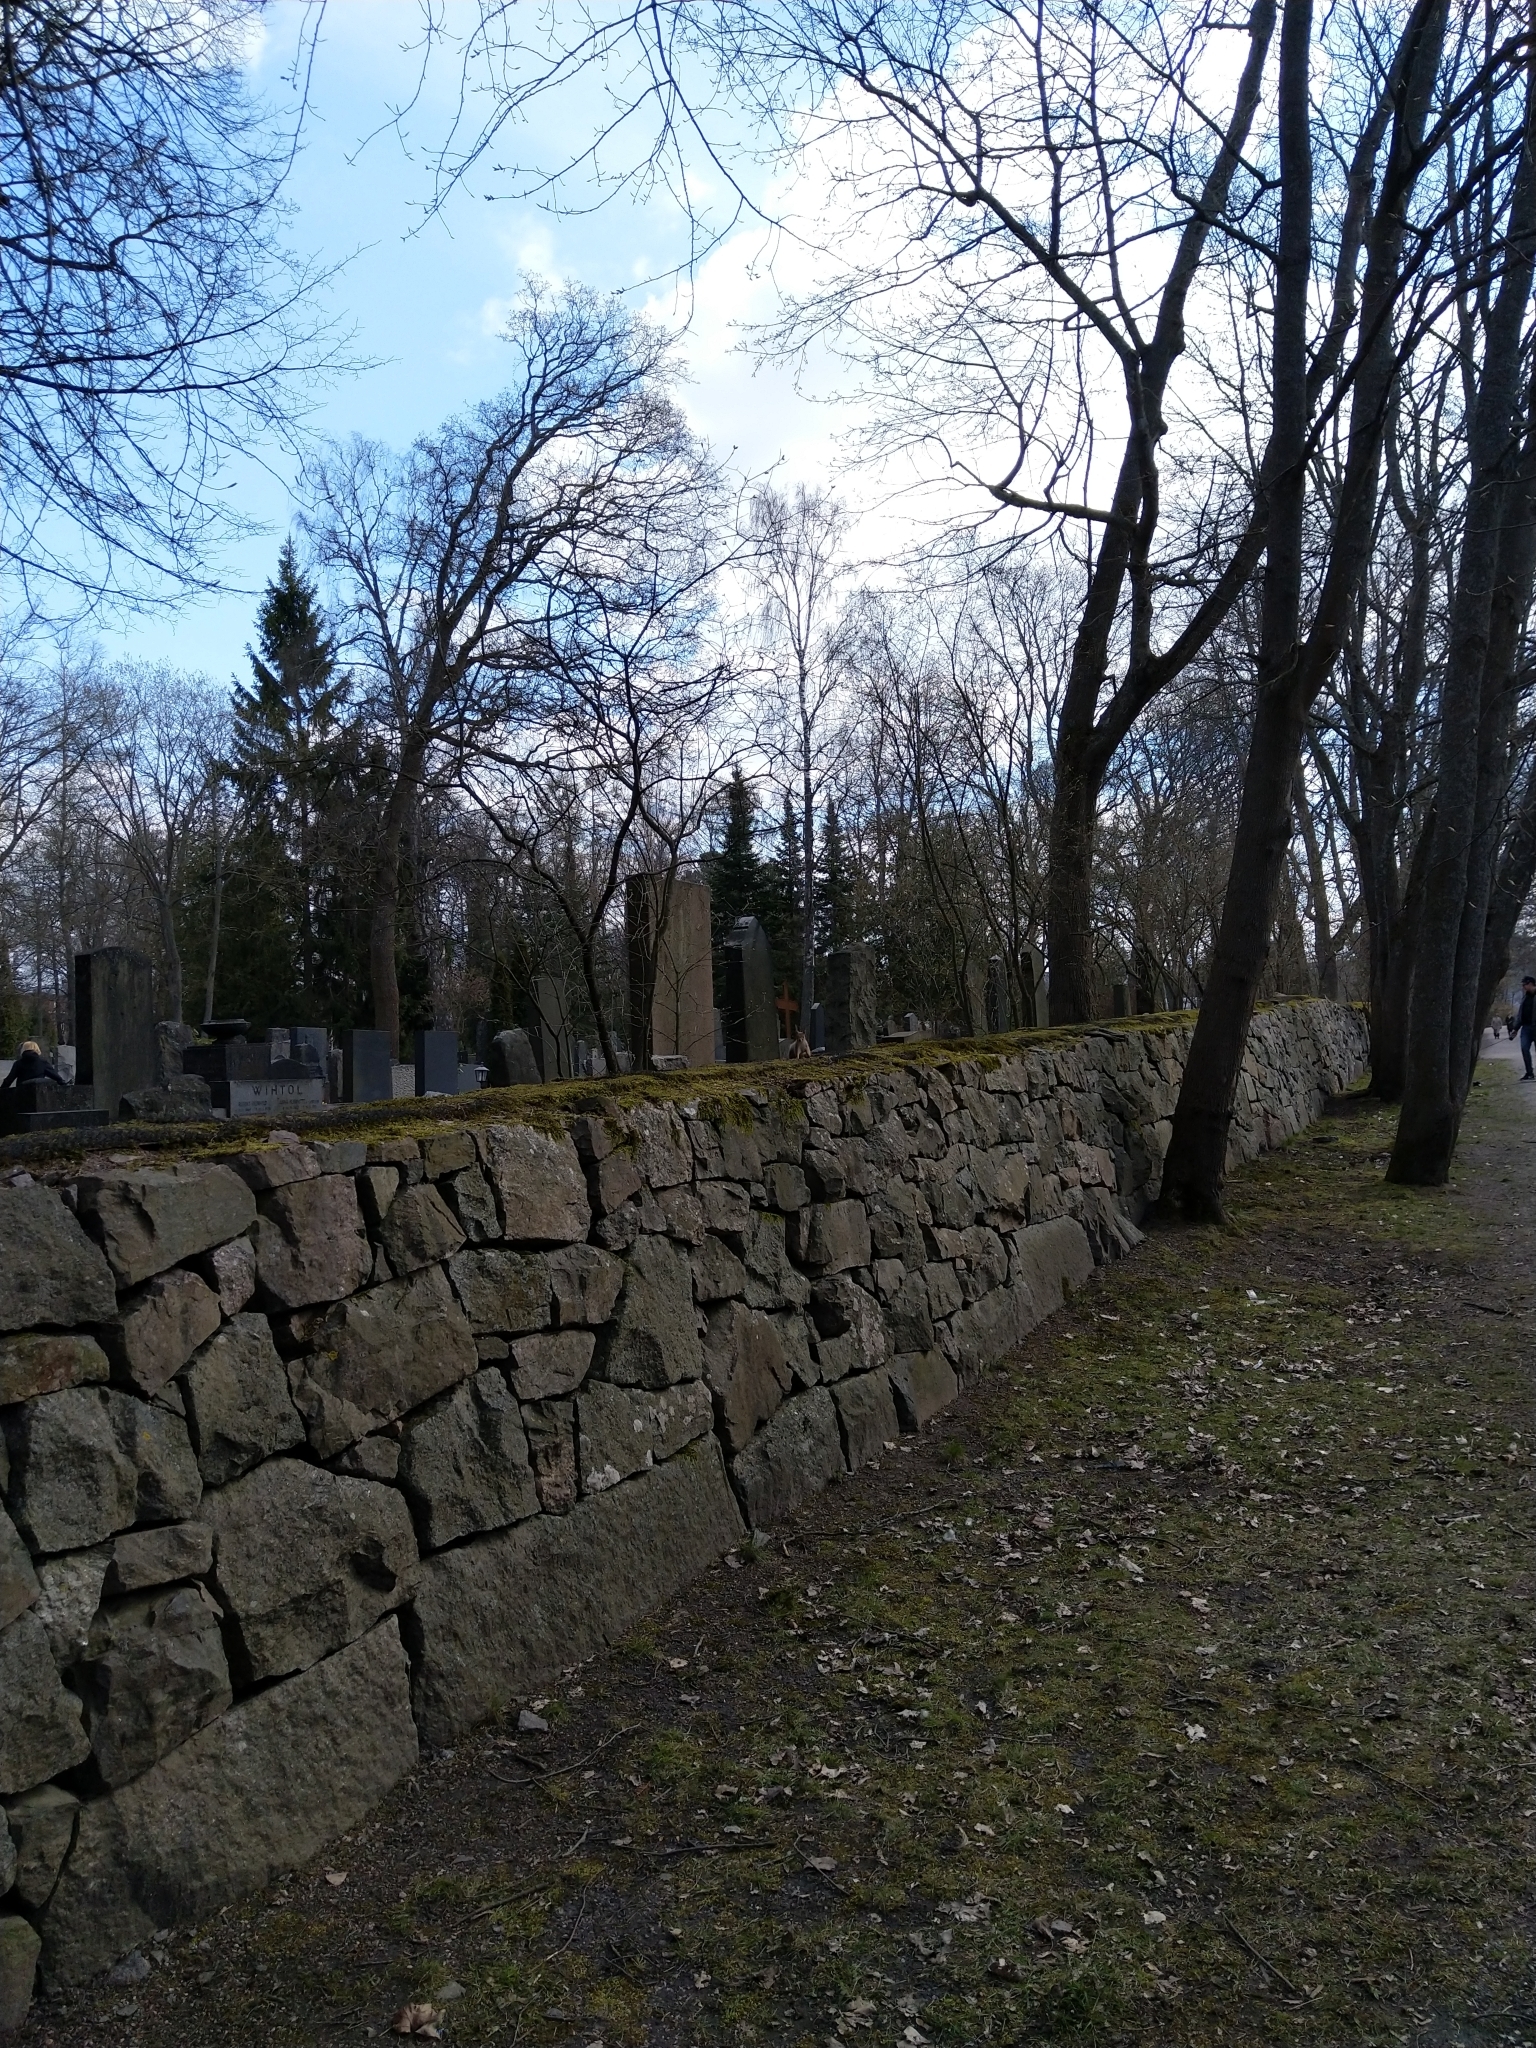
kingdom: Animalia
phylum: Chordata
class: Mammalia
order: Rodentia
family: Sciuridae
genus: Sciurus
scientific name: Sciurus vulgaris
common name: Eurasian red squirrel
